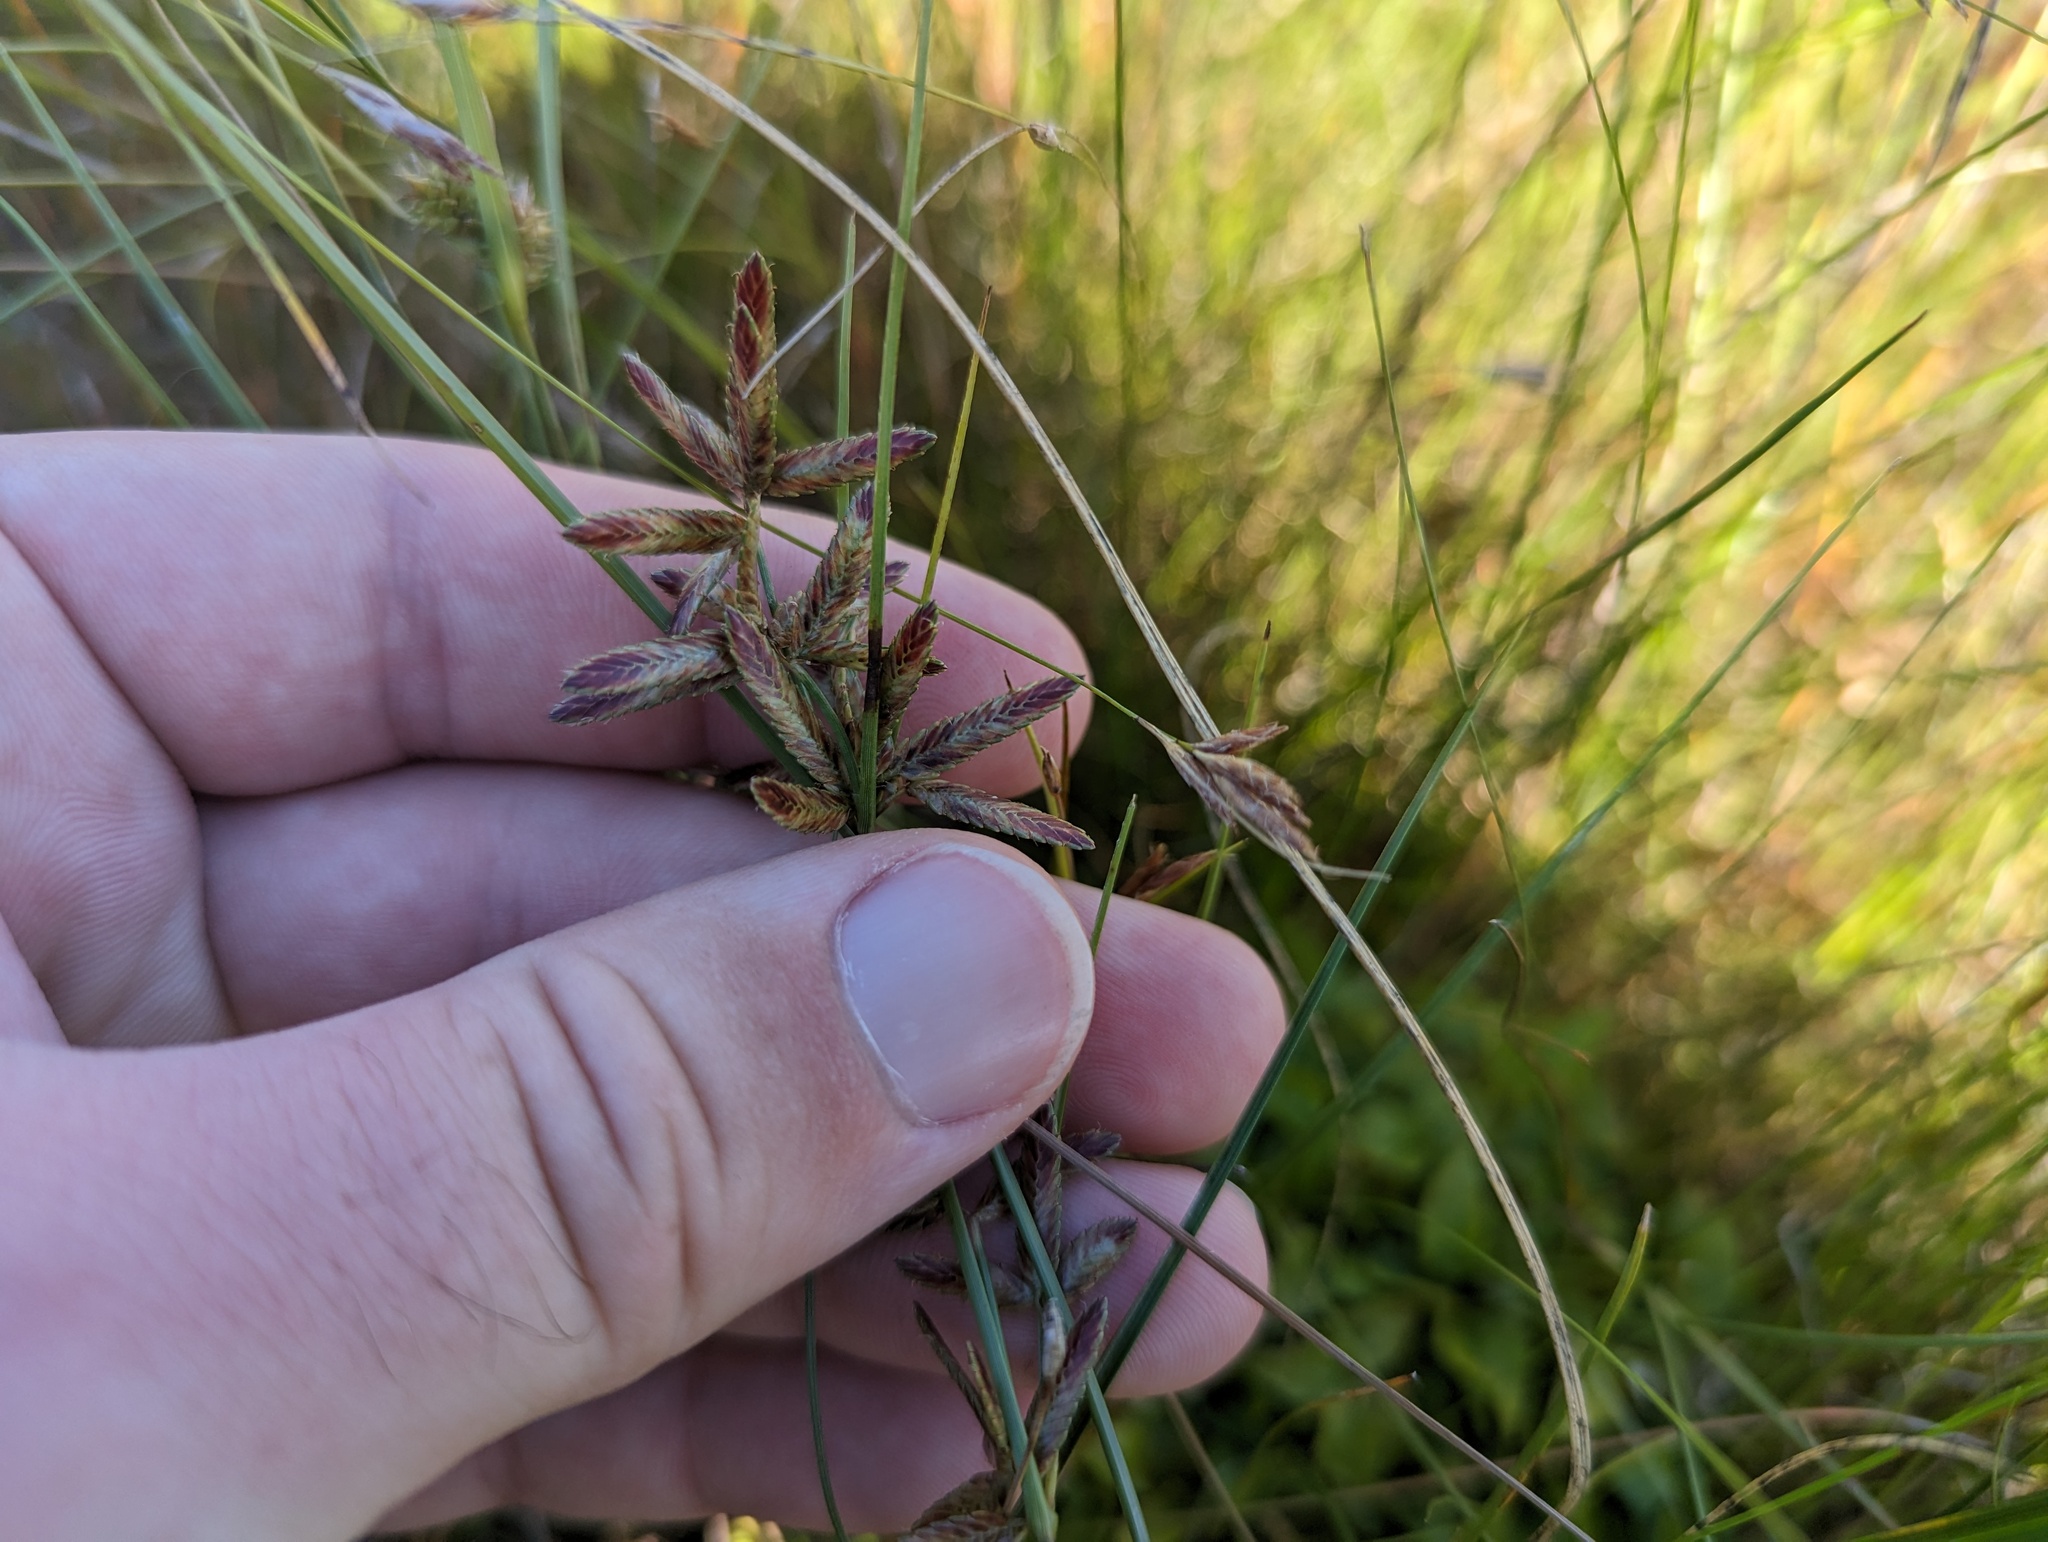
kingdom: Plantae
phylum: Tracheophyta
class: Liliopsida
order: Poales
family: Cyperaceae
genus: Cyperus
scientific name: Cyperus bipartitus
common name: Brook flatsedge
